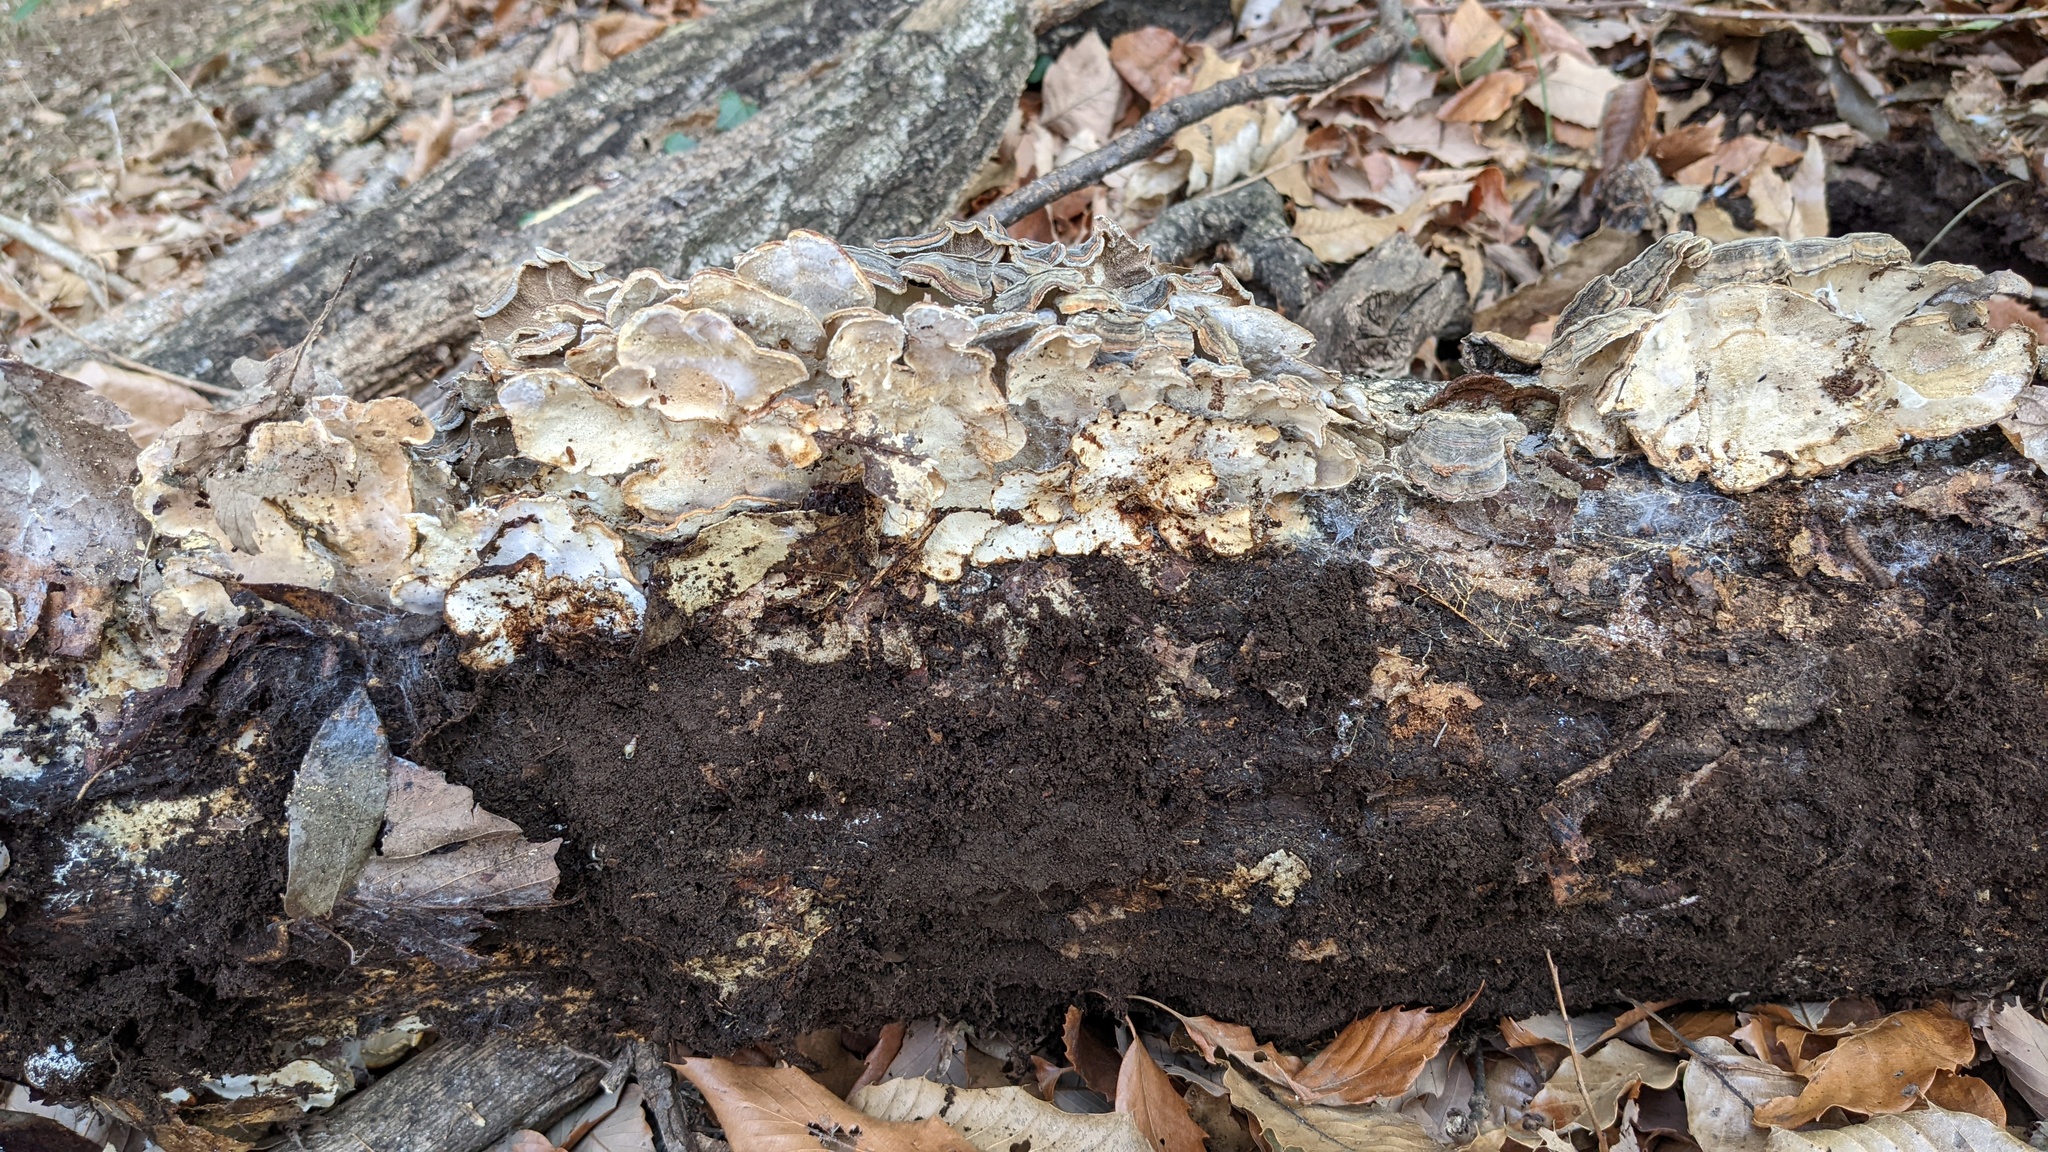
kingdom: Fungi
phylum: Basidiomycota
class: Agaricomycetes
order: Polyporales
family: Polyporaceae
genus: Trametes
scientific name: Trametes versicolor
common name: Turkeytail
